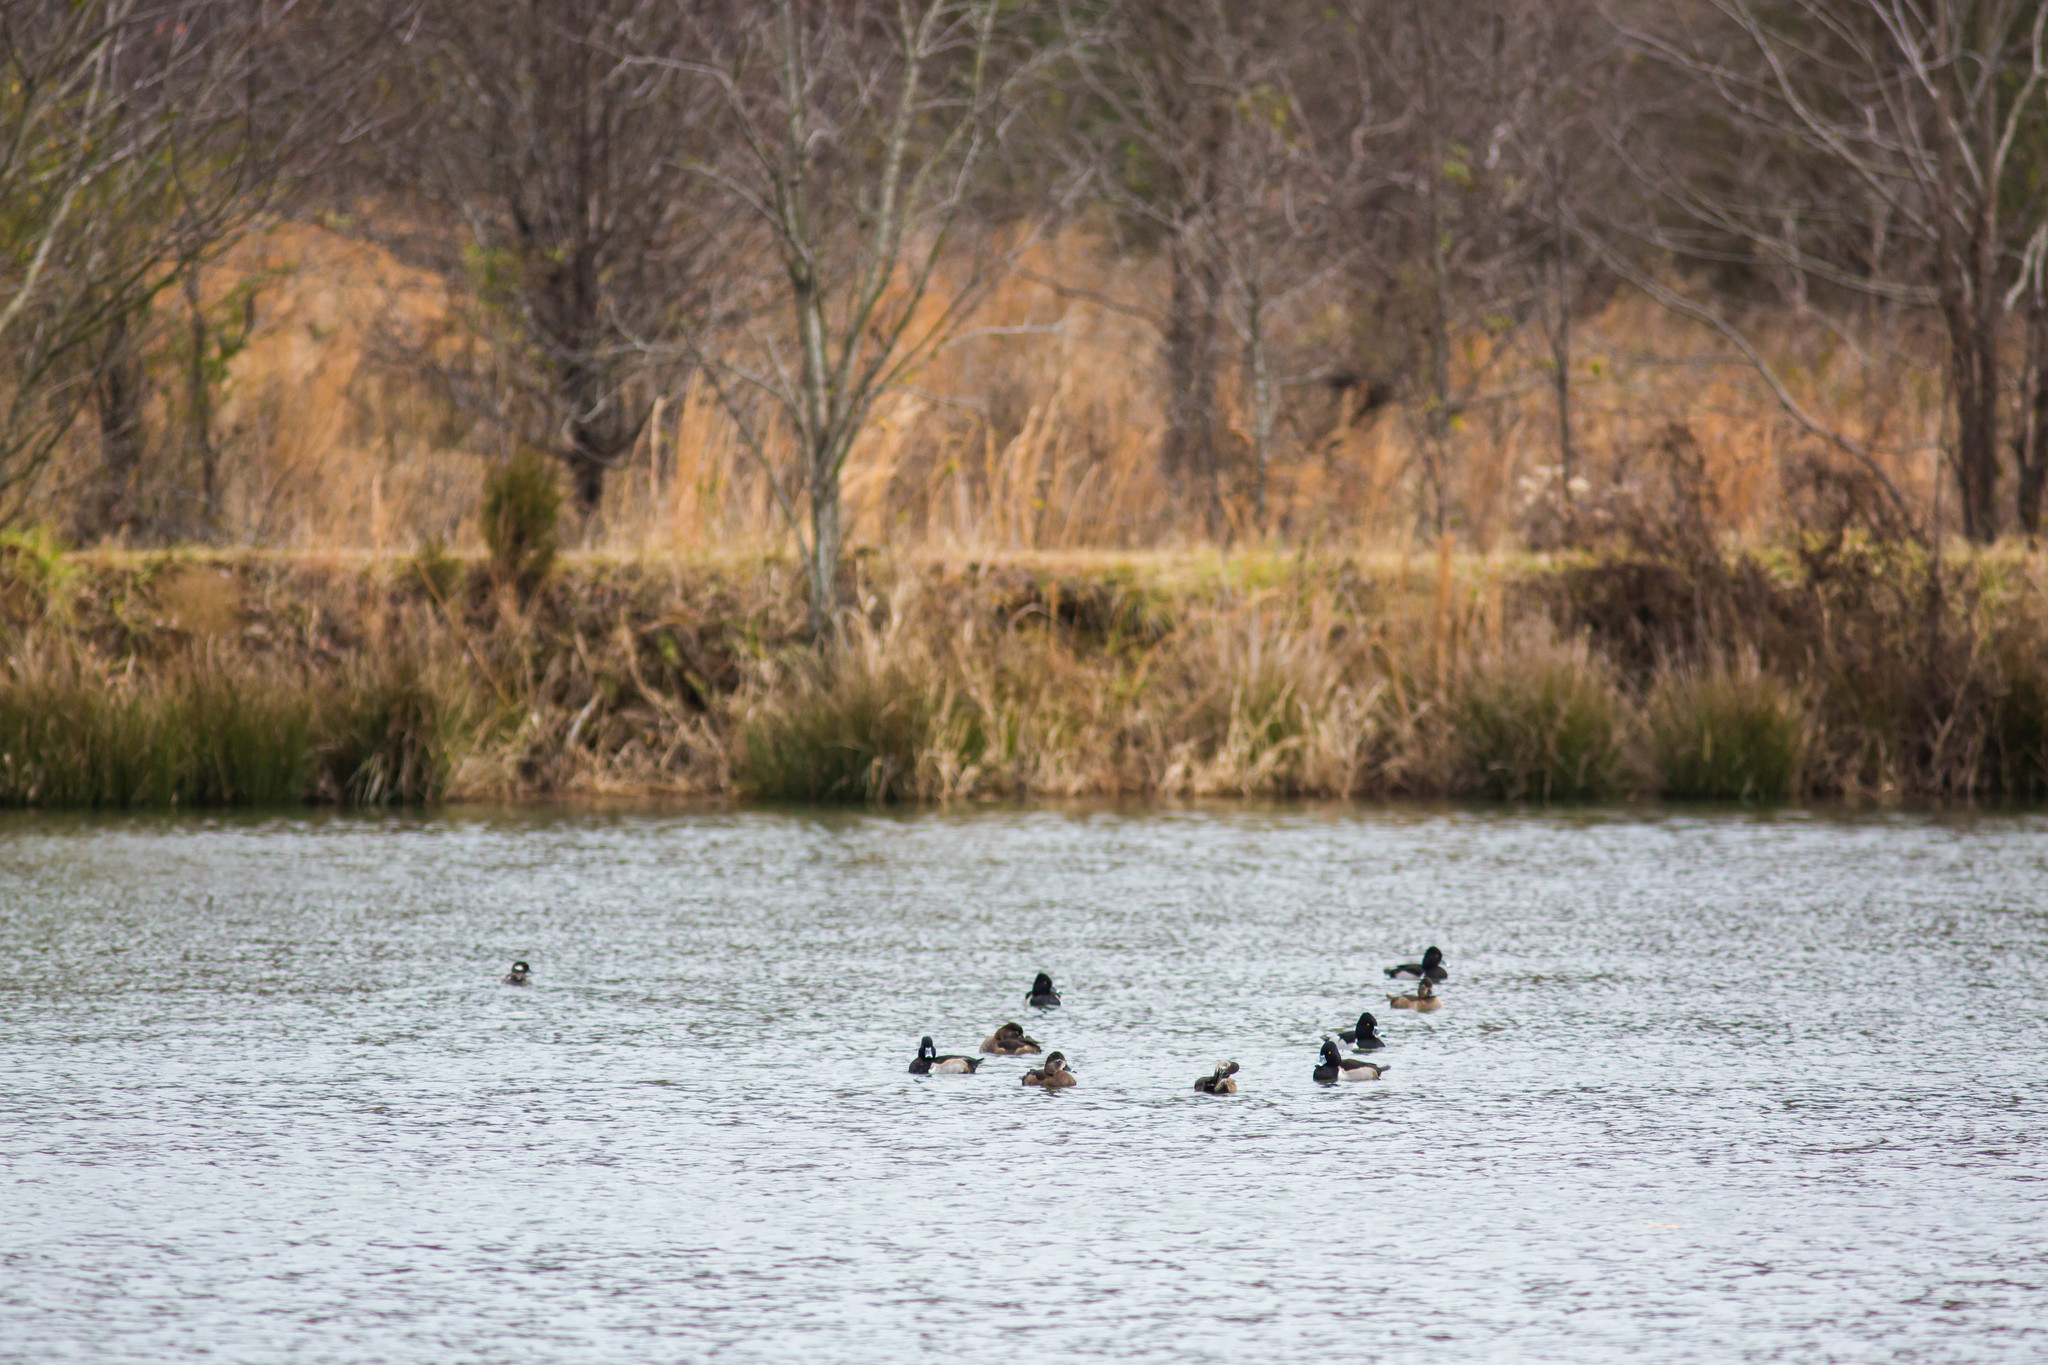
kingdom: Animalia
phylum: Chordata
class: Aves
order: Anseriformes
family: Anatidae
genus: Aythya
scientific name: Aythya collaris
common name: Ring-necked duck
